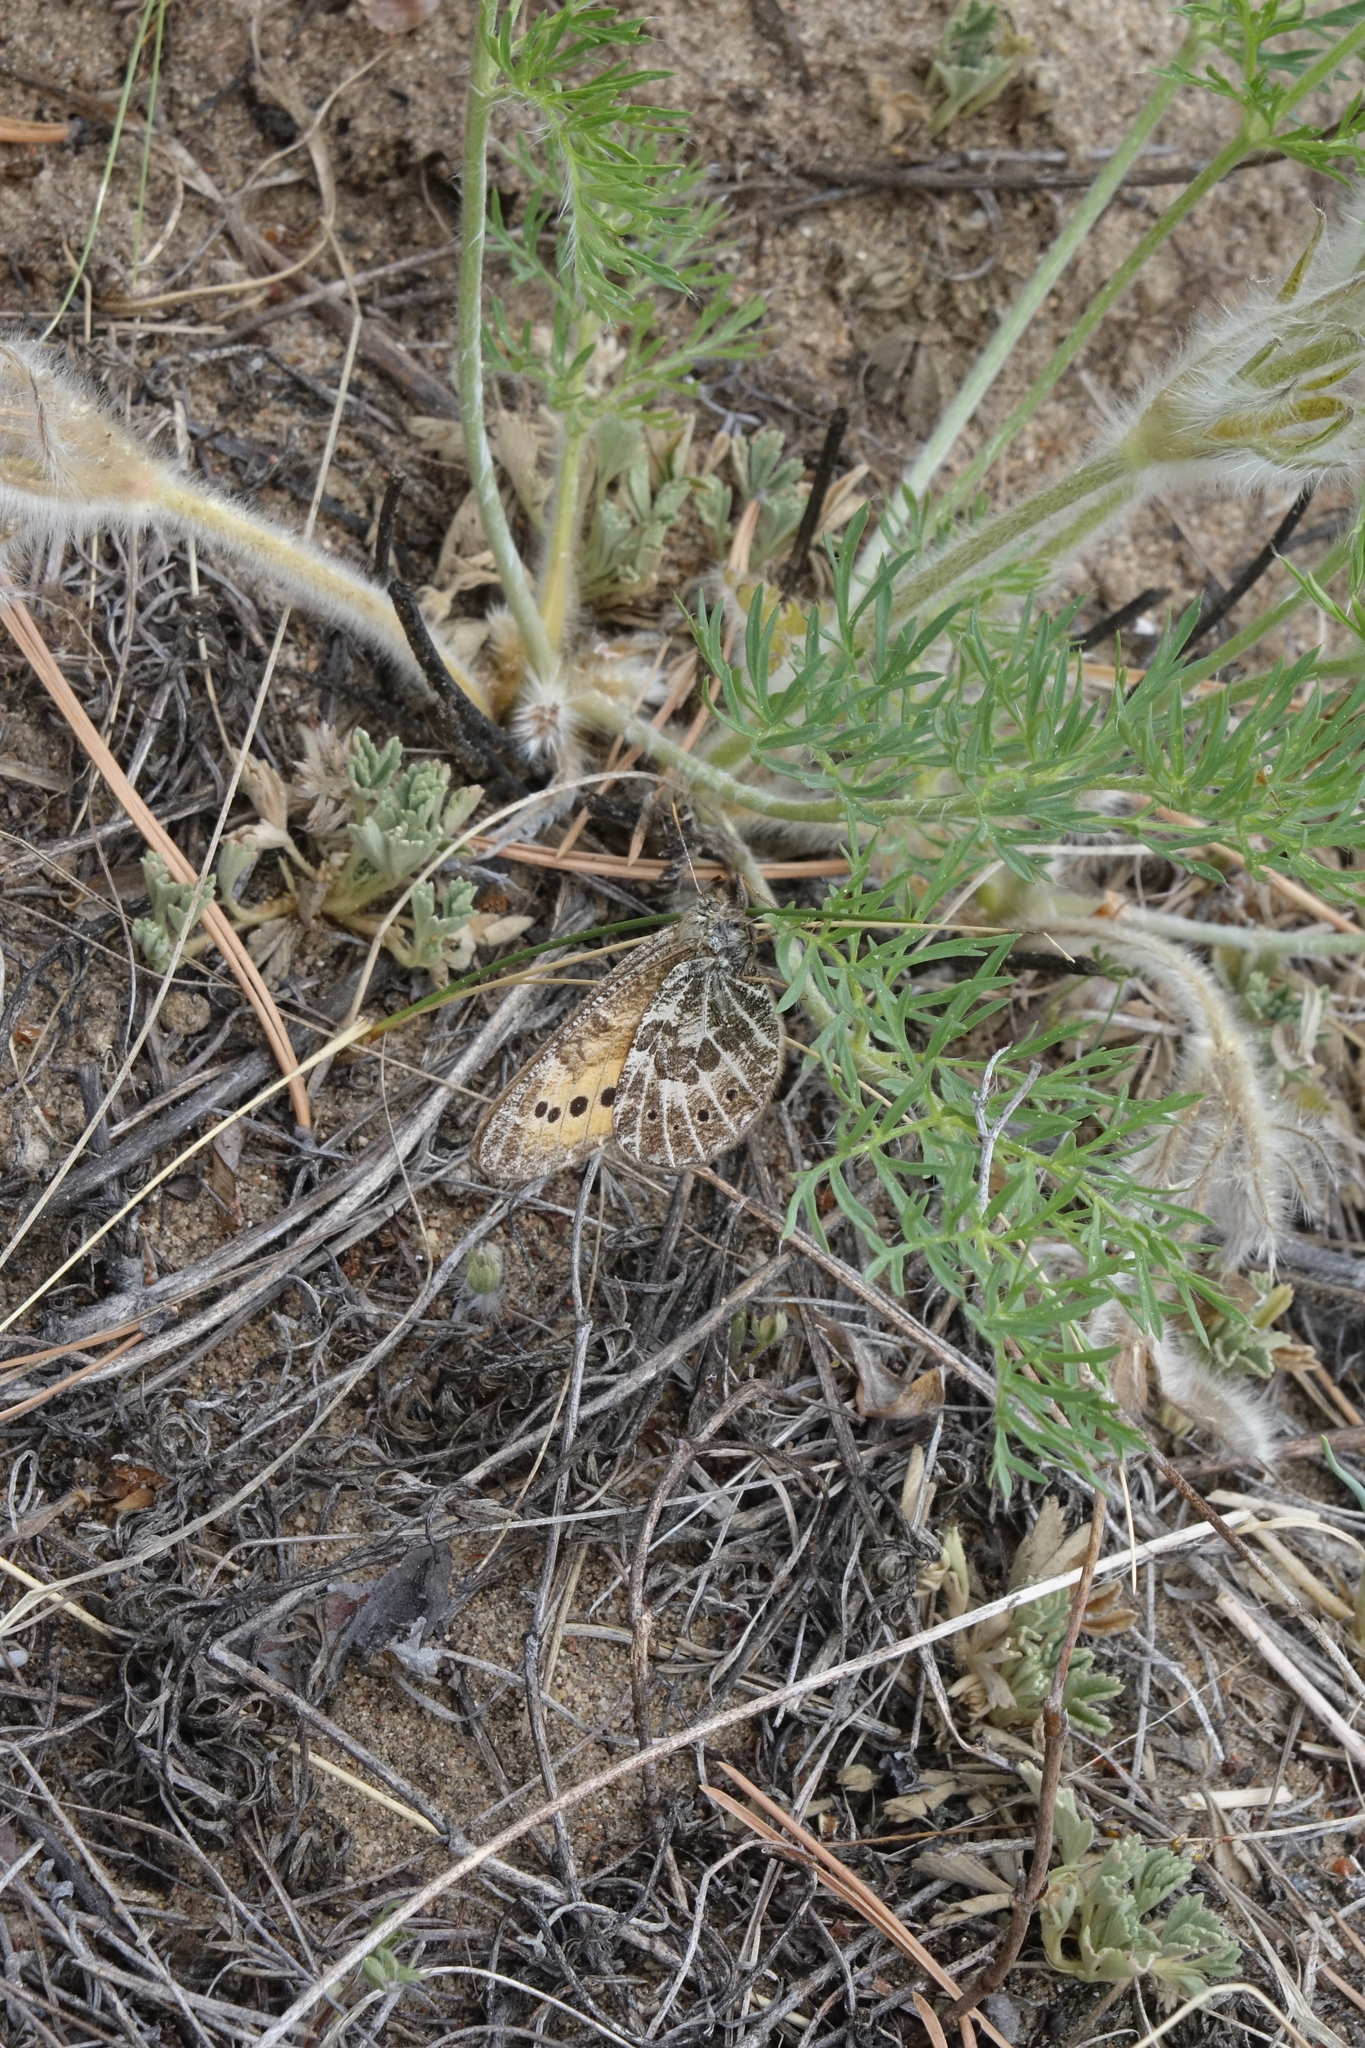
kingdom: Animalia
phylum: Arthropoda
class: Insecta
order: Lepidoptera
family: Nymphalidae
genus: Oeneis
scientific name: Oeneis tarpeia
